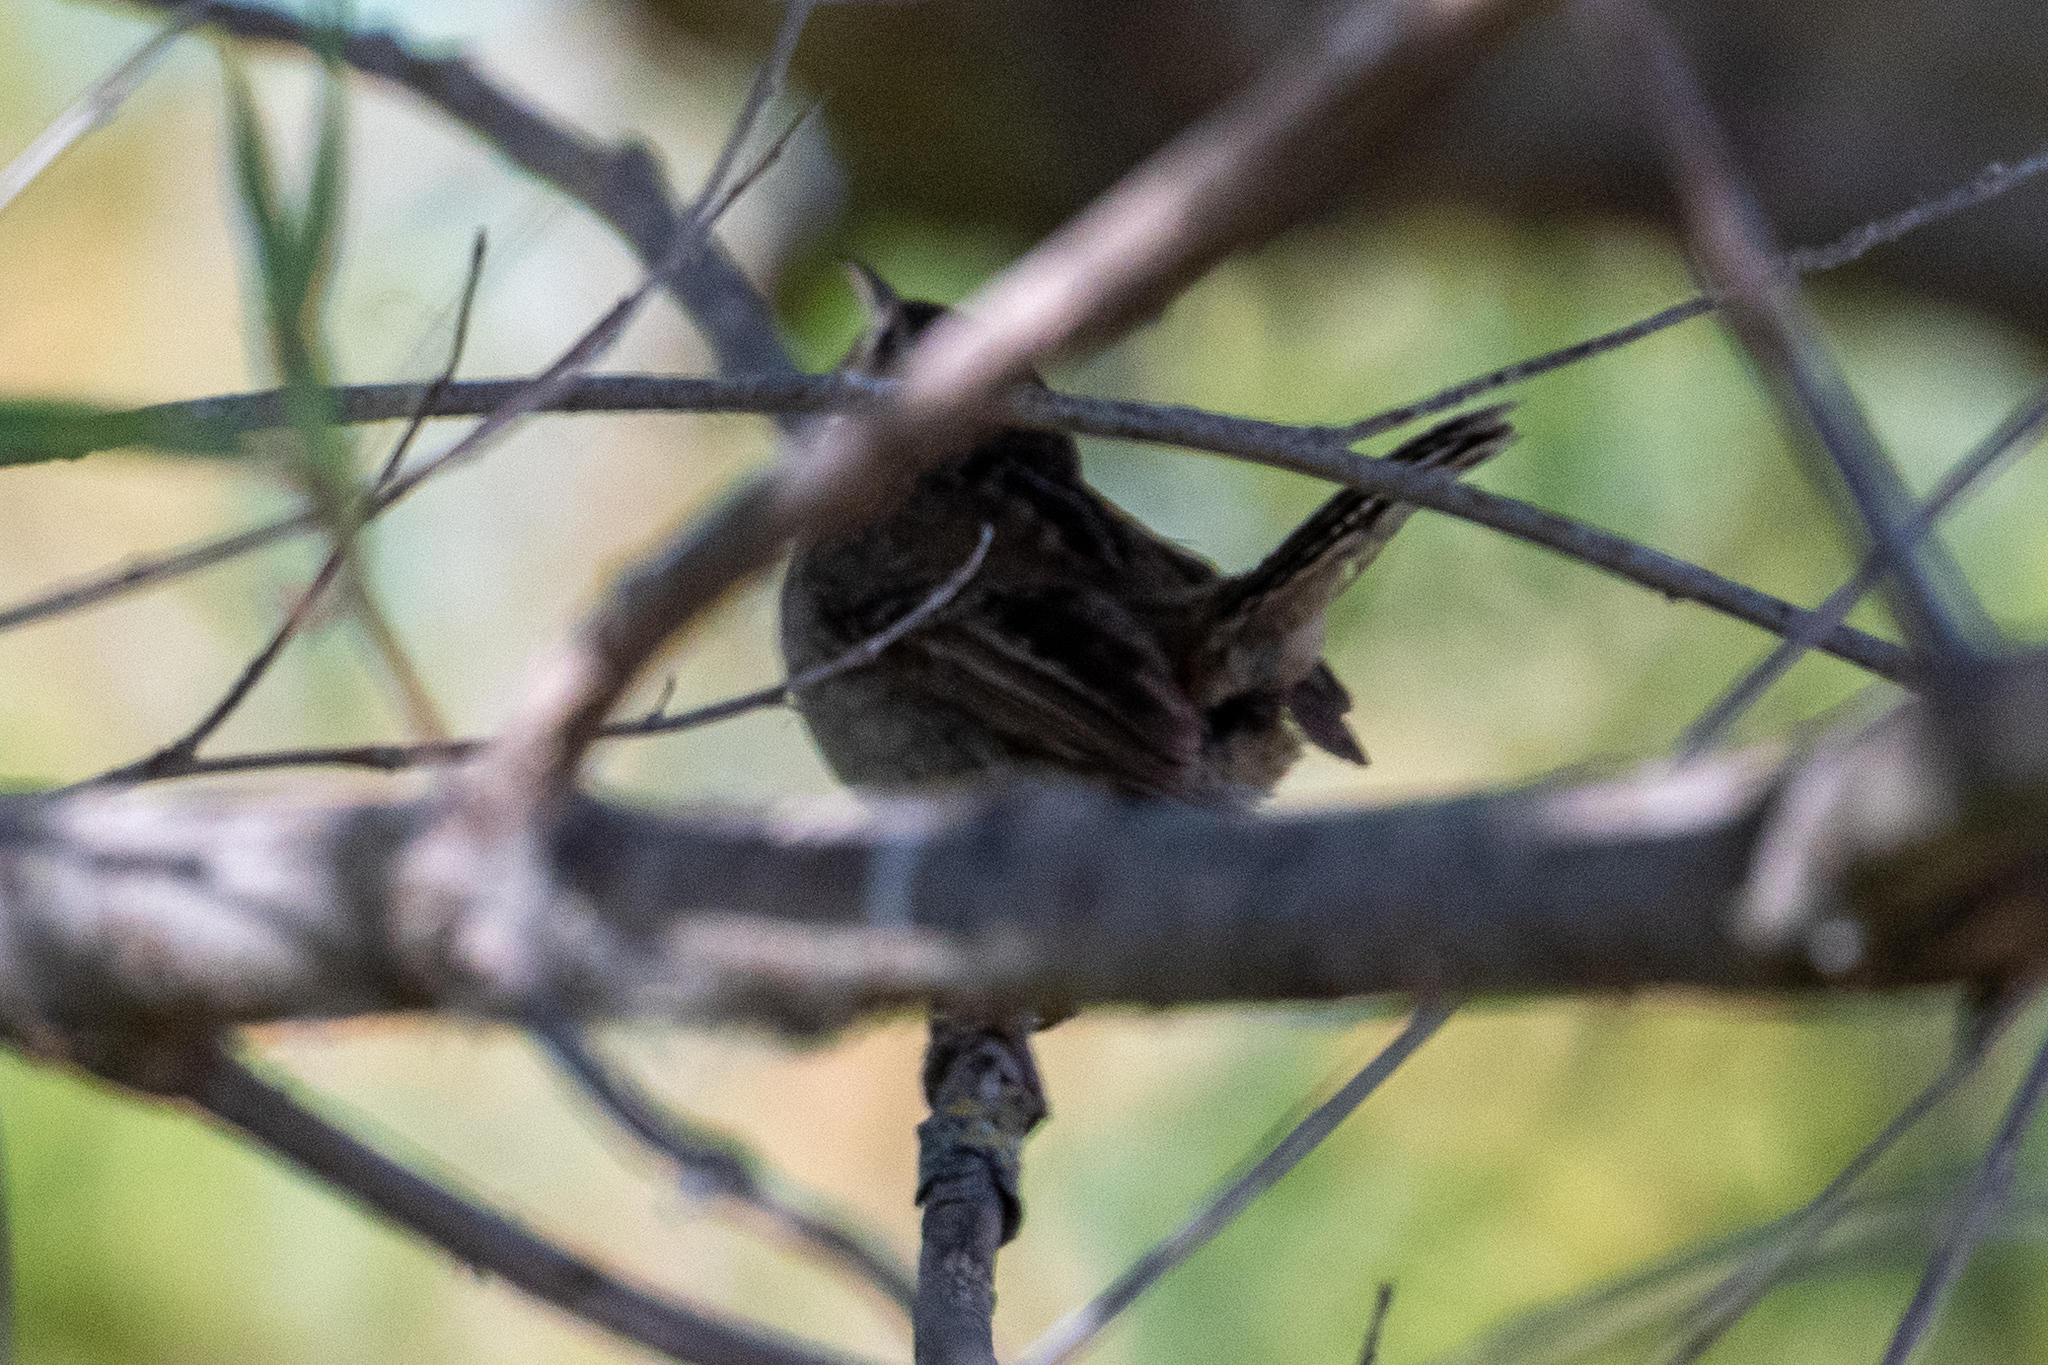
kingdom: Animalia
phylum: Chordata
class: Aves
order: Passeriformes
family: Troglodytidae
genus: Cistothorus
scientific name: Cistothorus palustris
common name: Marsh wren
